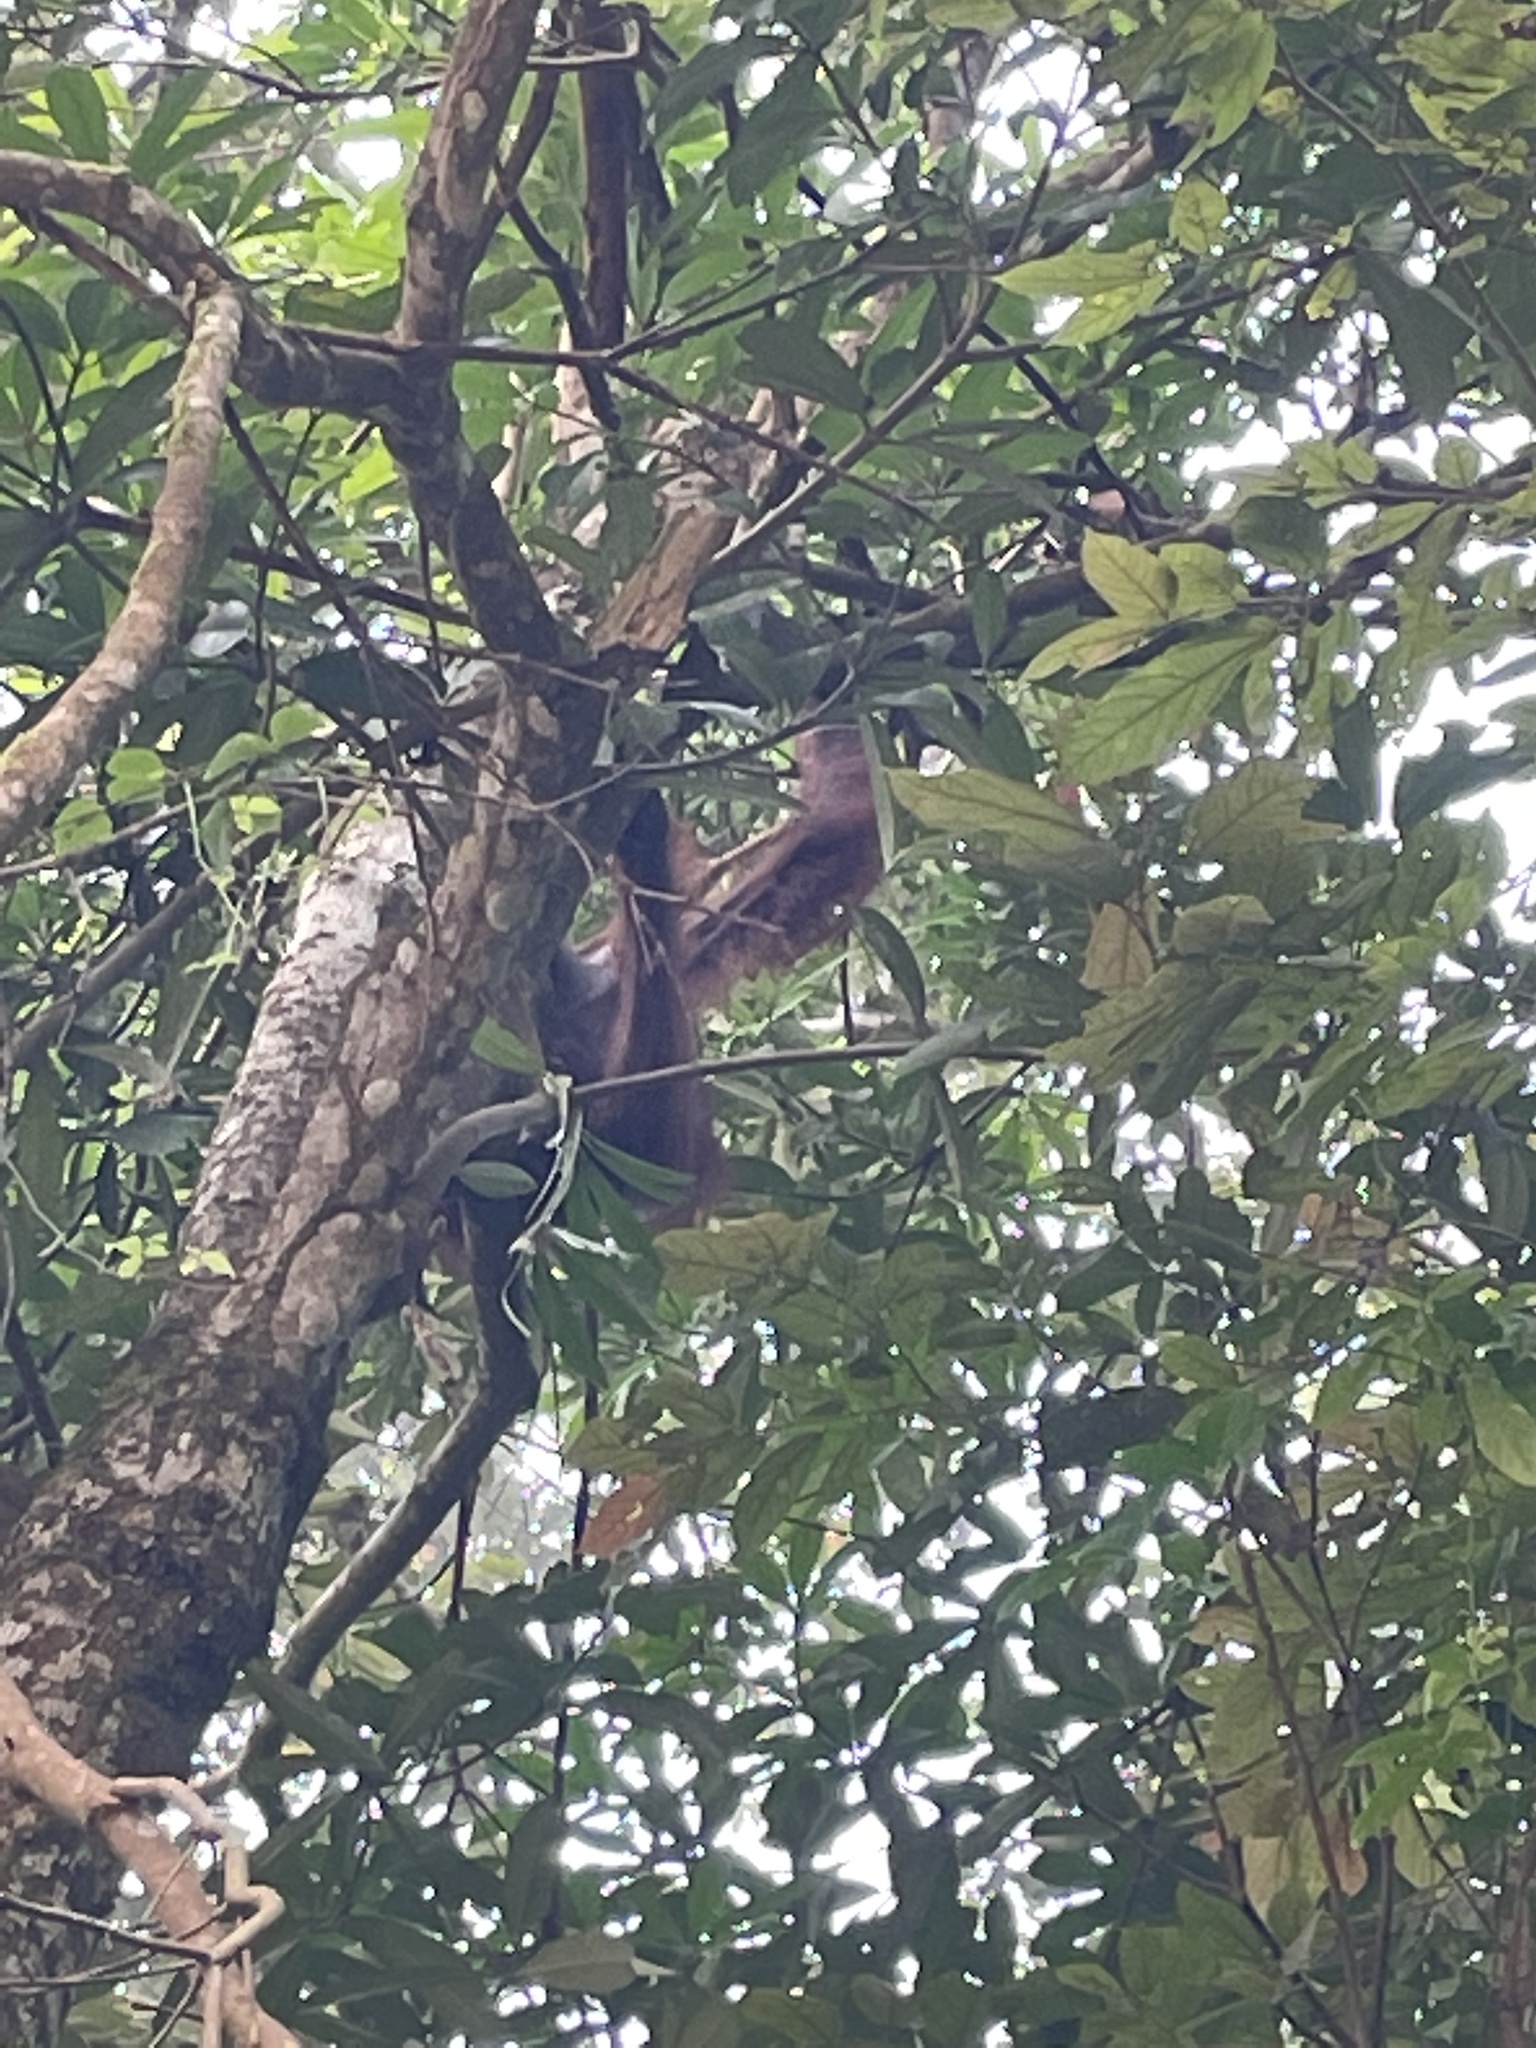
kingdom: Animalia
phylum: Chordata
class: Mammalia
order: Primates
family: Hominidae
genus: Pongo
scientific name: Pongo pygmaeus
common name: Bornean orangutan
